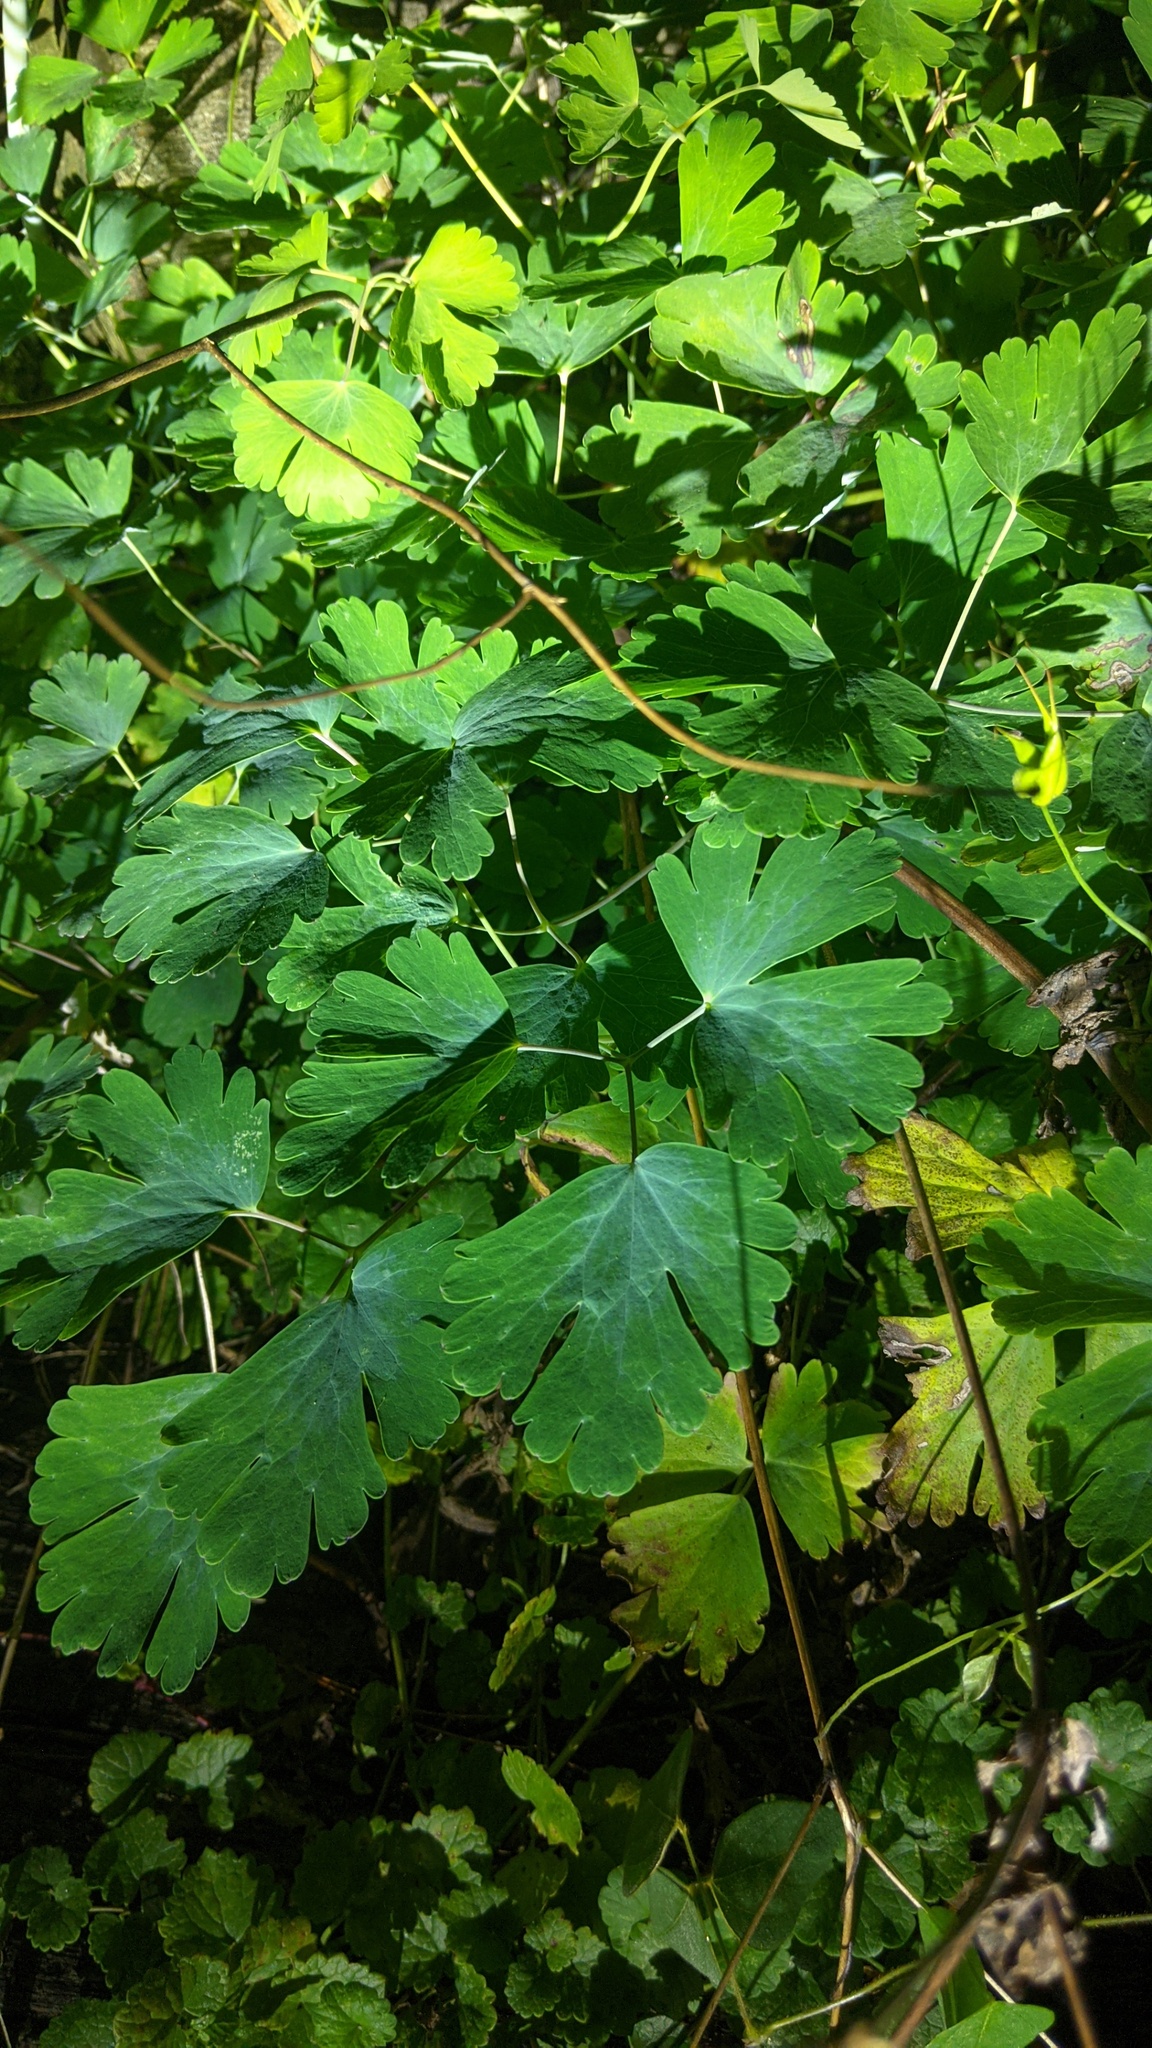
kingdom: Plantae
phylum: Tracheophyta
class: Magnoliopsida
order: Ranunculales
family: Ranunculaceae
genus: Aquilegia
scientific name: Aquilegia canadensis
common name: American columbine
